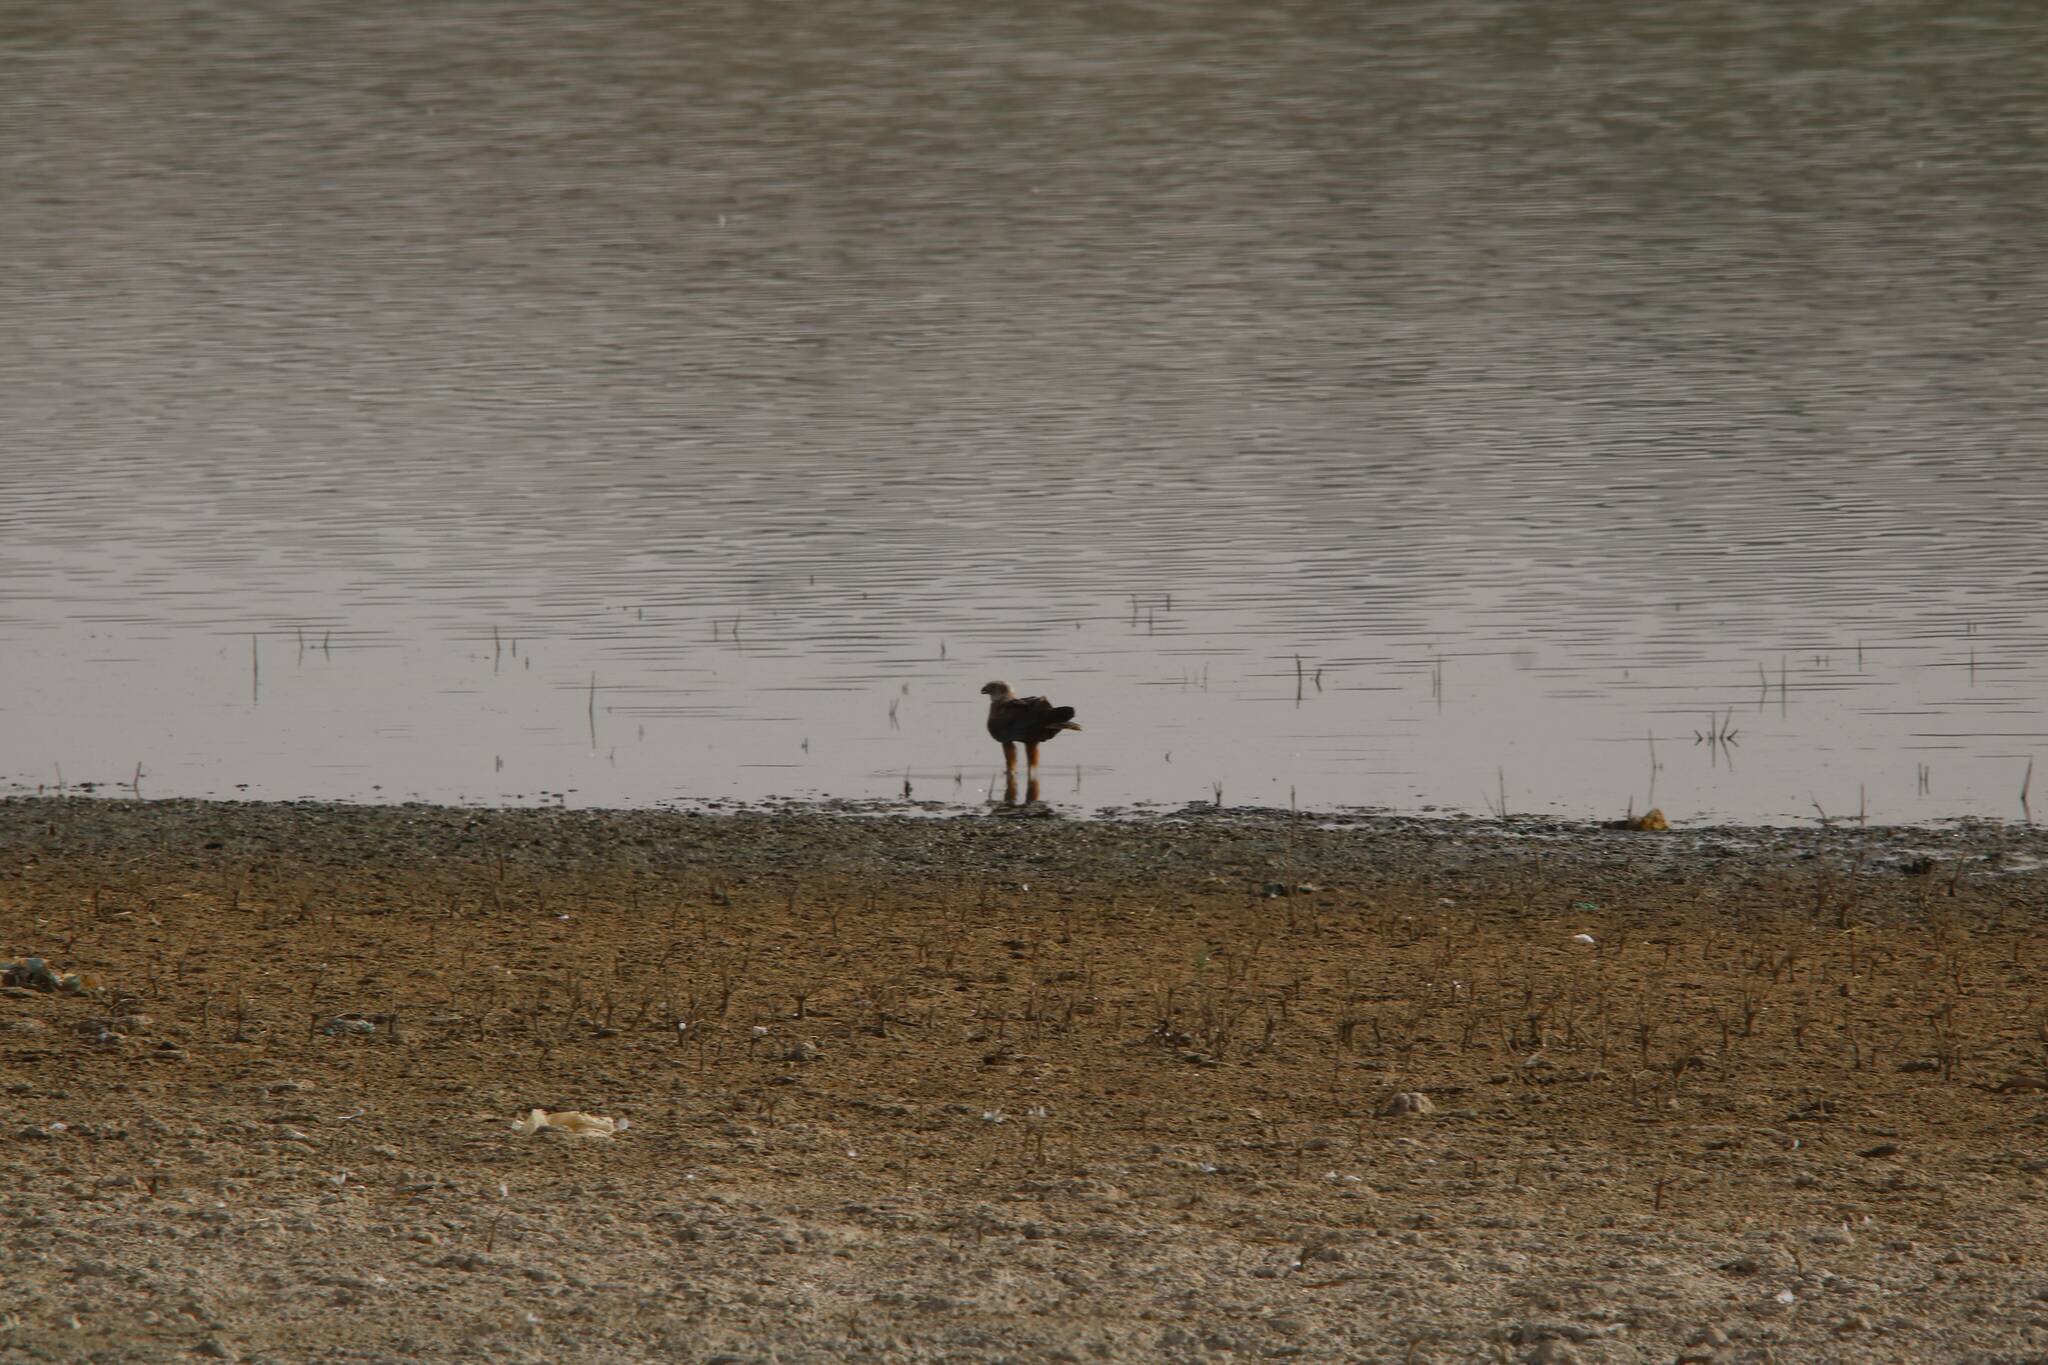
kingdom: Animalia
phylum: Chordata
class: Aves
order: Accipitriformes
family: Accipitridae
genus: Circus
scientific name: Circus aeruginosus
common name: Western marsh harrier
